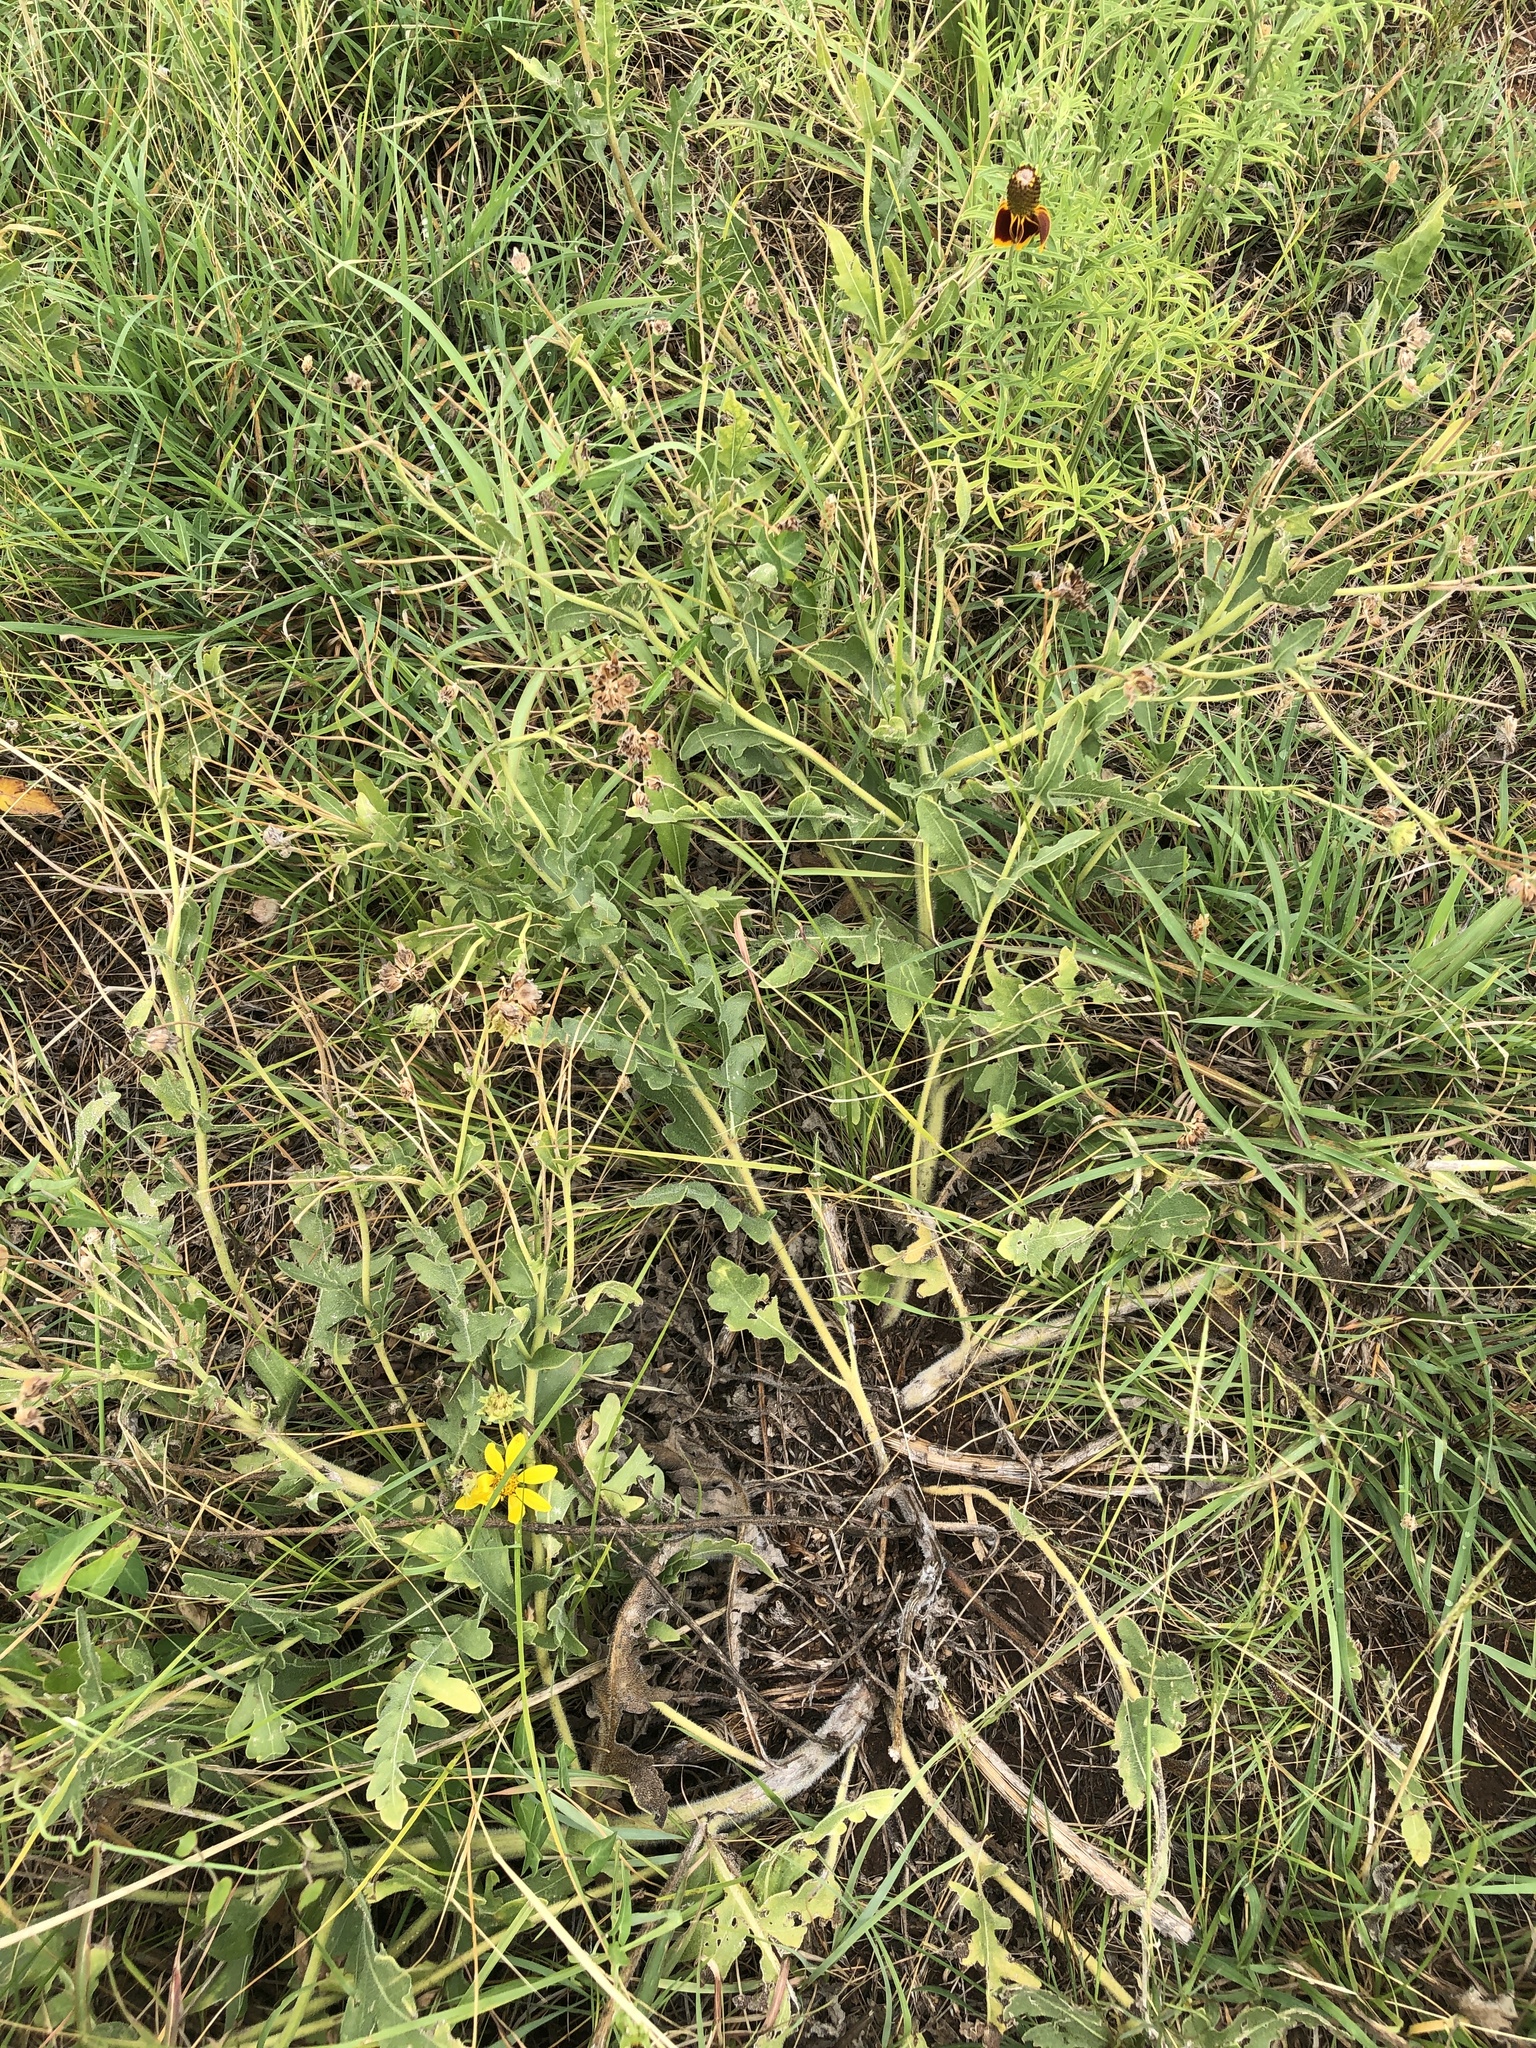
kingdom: Plantae
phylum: Tracheophyta
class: Magnoliopsida
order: Asterales
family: Asteraceae
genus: Engelmannia
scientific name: Engelmannia peristenia
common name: Engelmann's daisy
